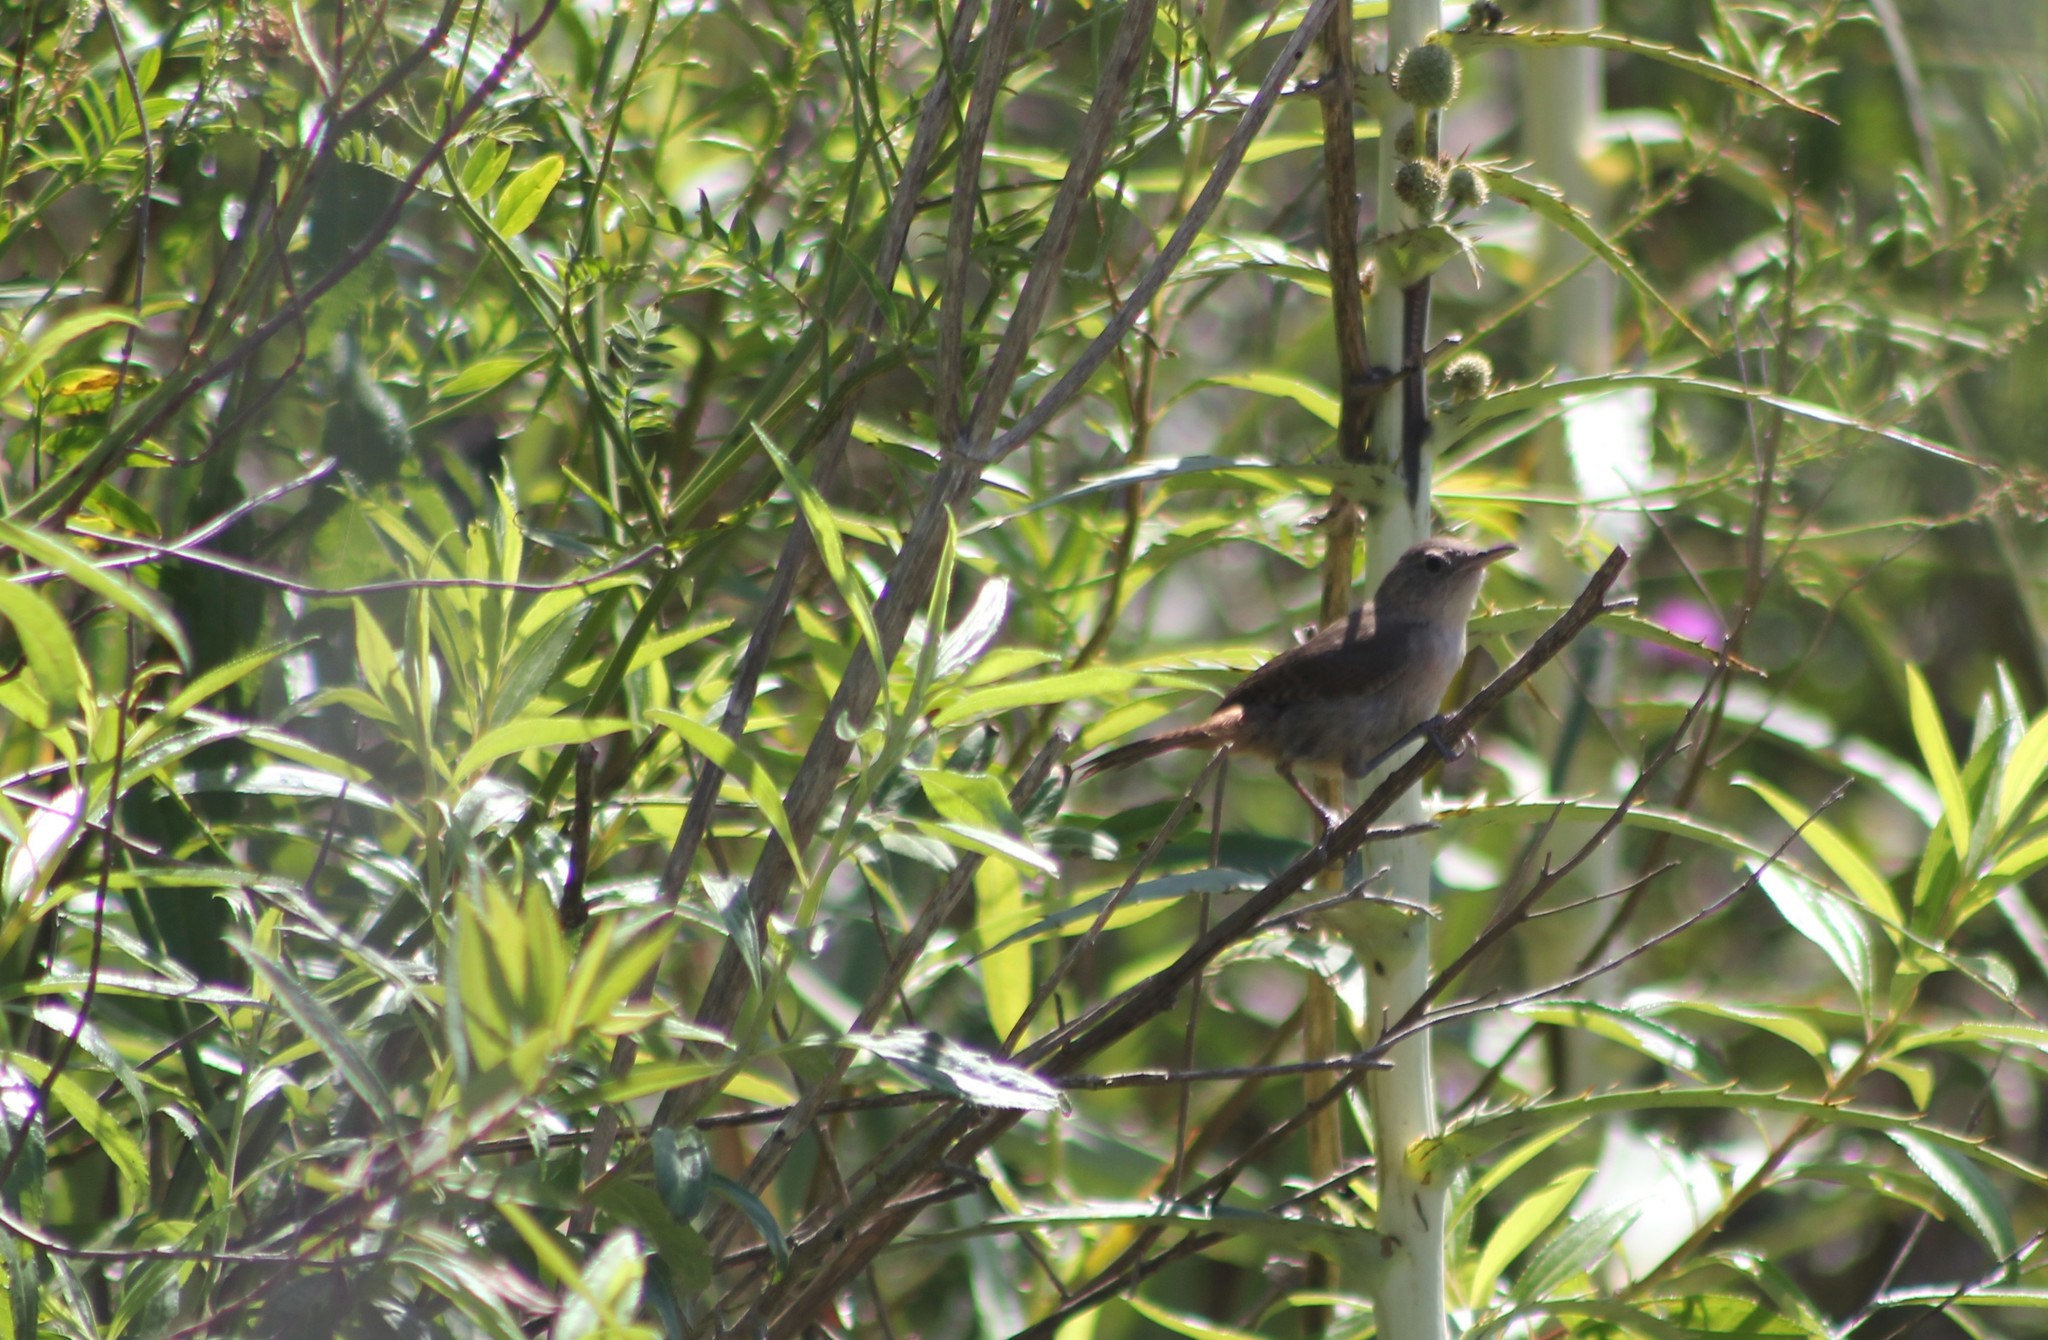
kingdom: Animalia
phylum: Chordata
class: Aves
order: Passeriformes
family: Troglodytidae
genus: Troglodytes
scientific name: Troglodytes aedon
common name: House wren
